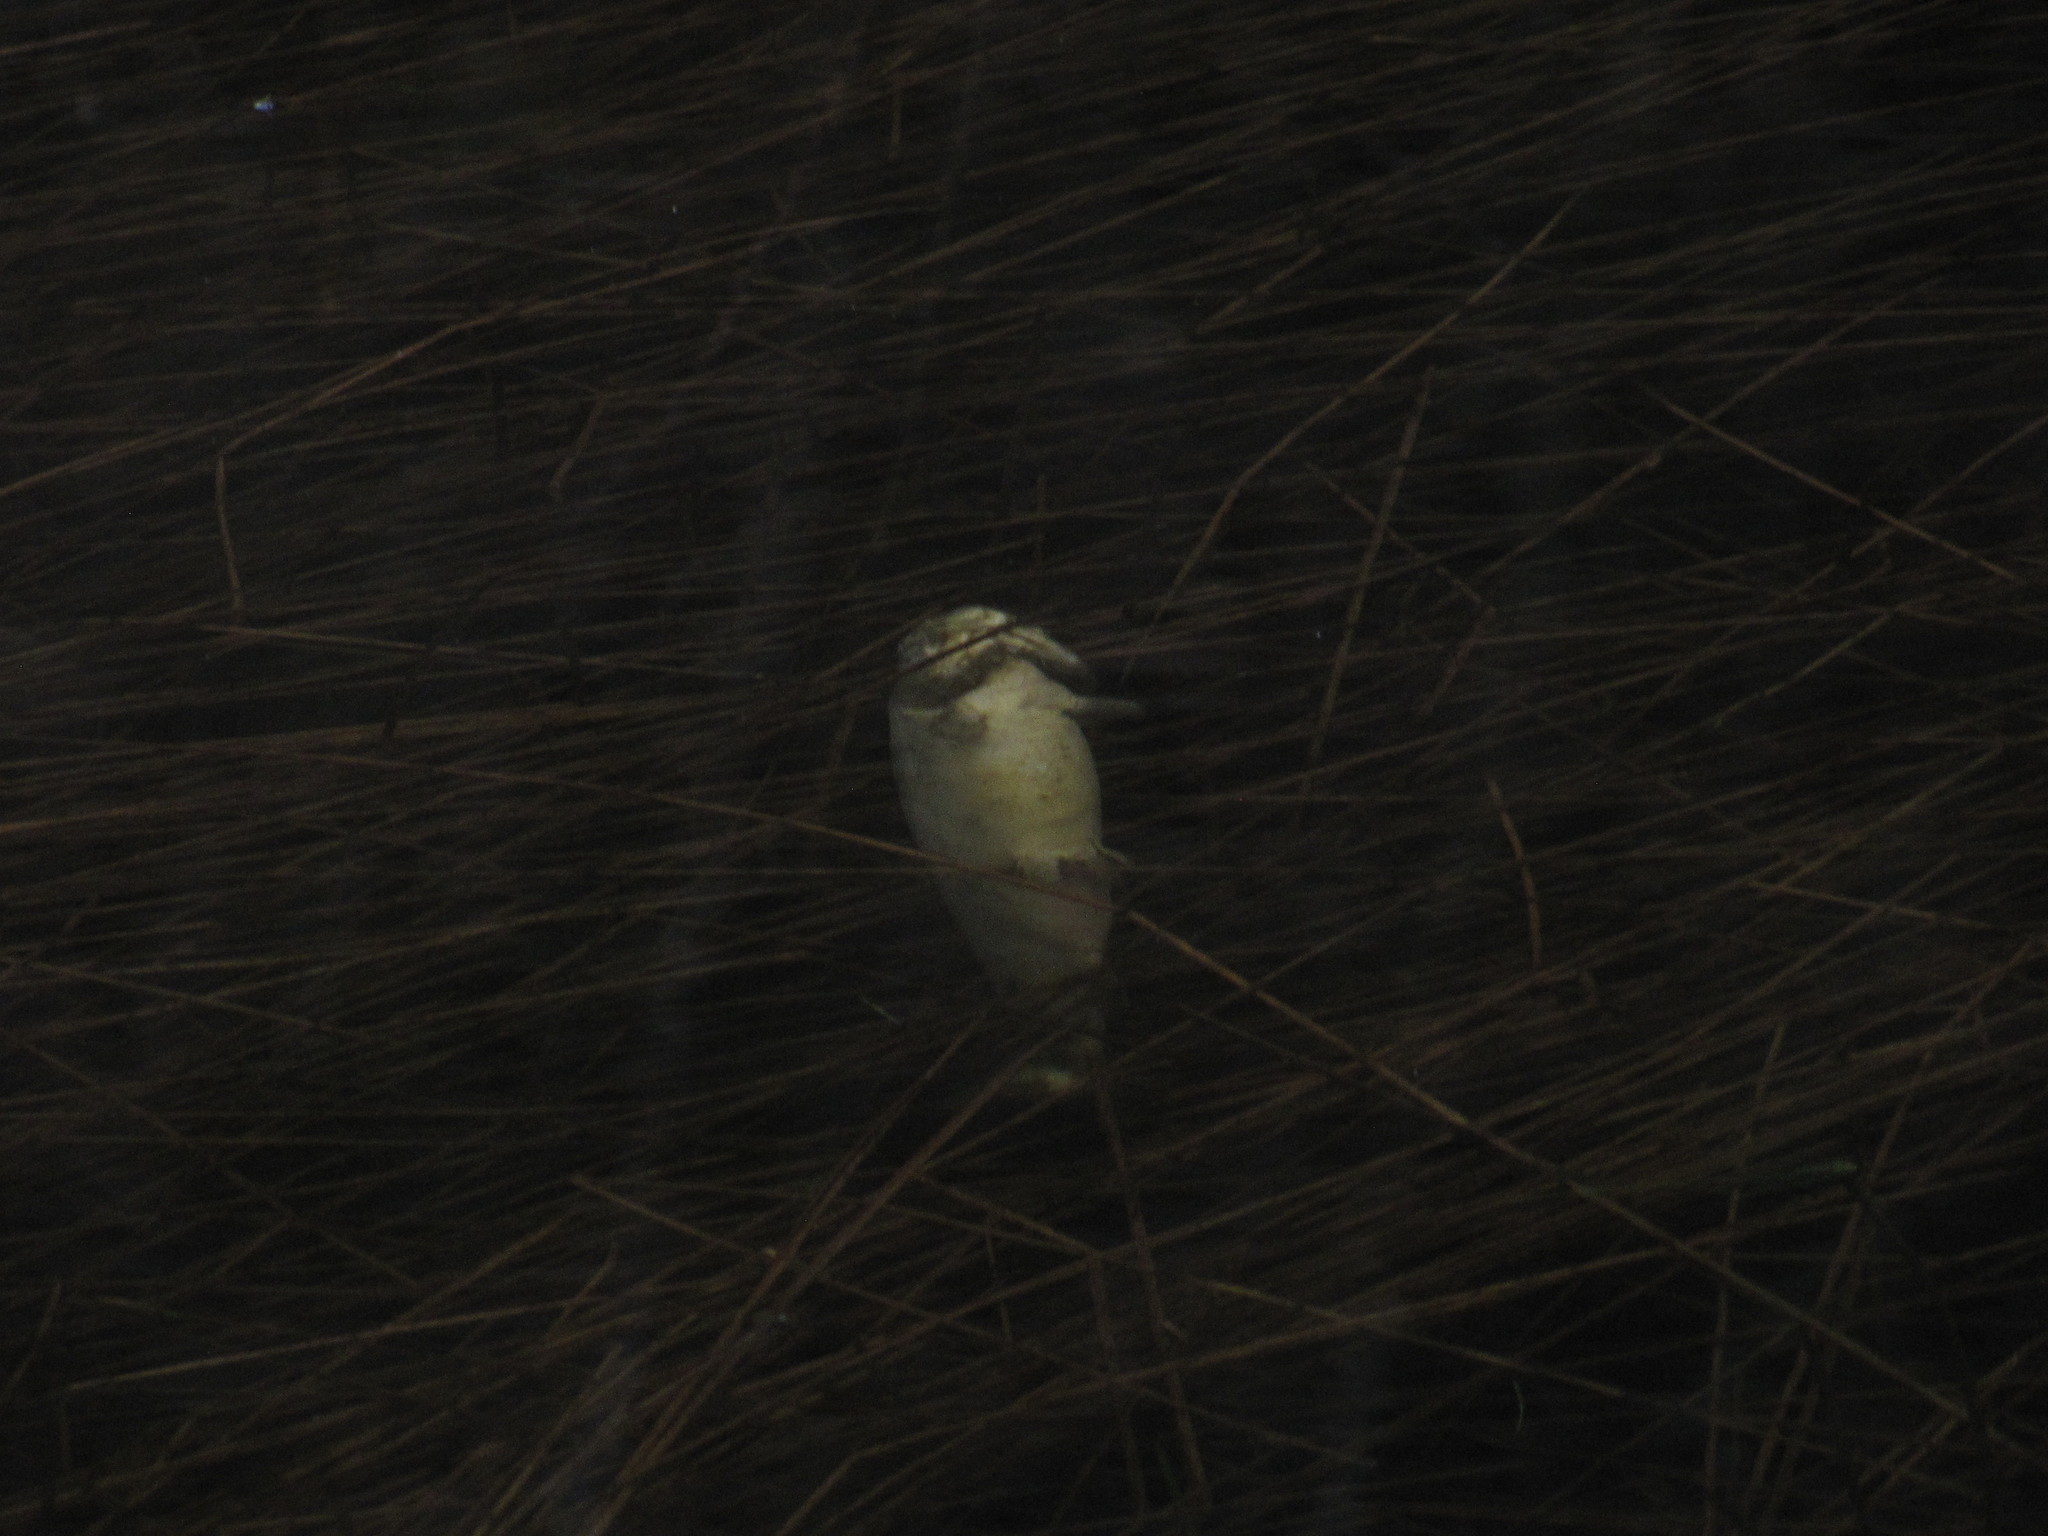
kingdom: Animalia
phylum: Chordata
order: Salmoniformes
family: Salmonidae
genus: Oncorhynchus
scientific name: Oncorhynchus mykiss
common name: Rainbow trout
